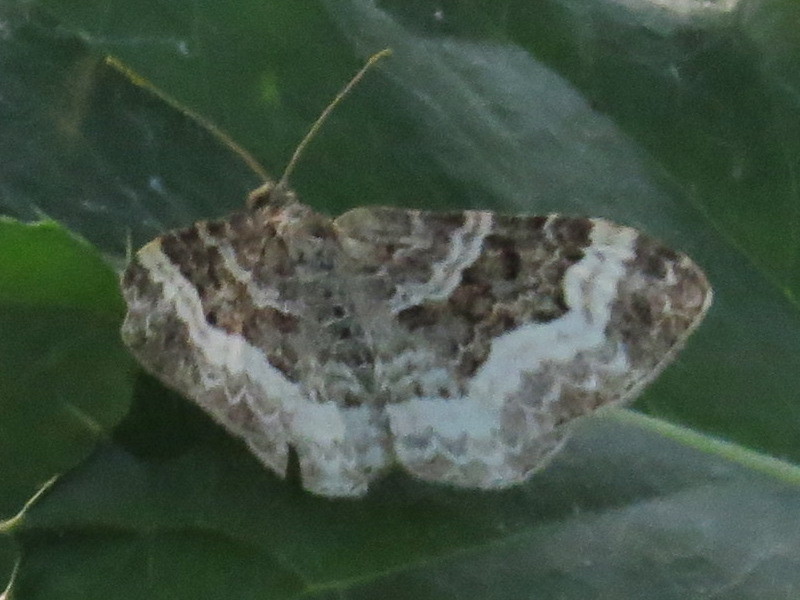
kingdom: Animalia
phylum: Arthropoda
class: Insecta
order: Lepidoptera
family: Geometridae
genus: Epirrhoe
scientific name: Epirrhoe alternata
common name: Common carpet
